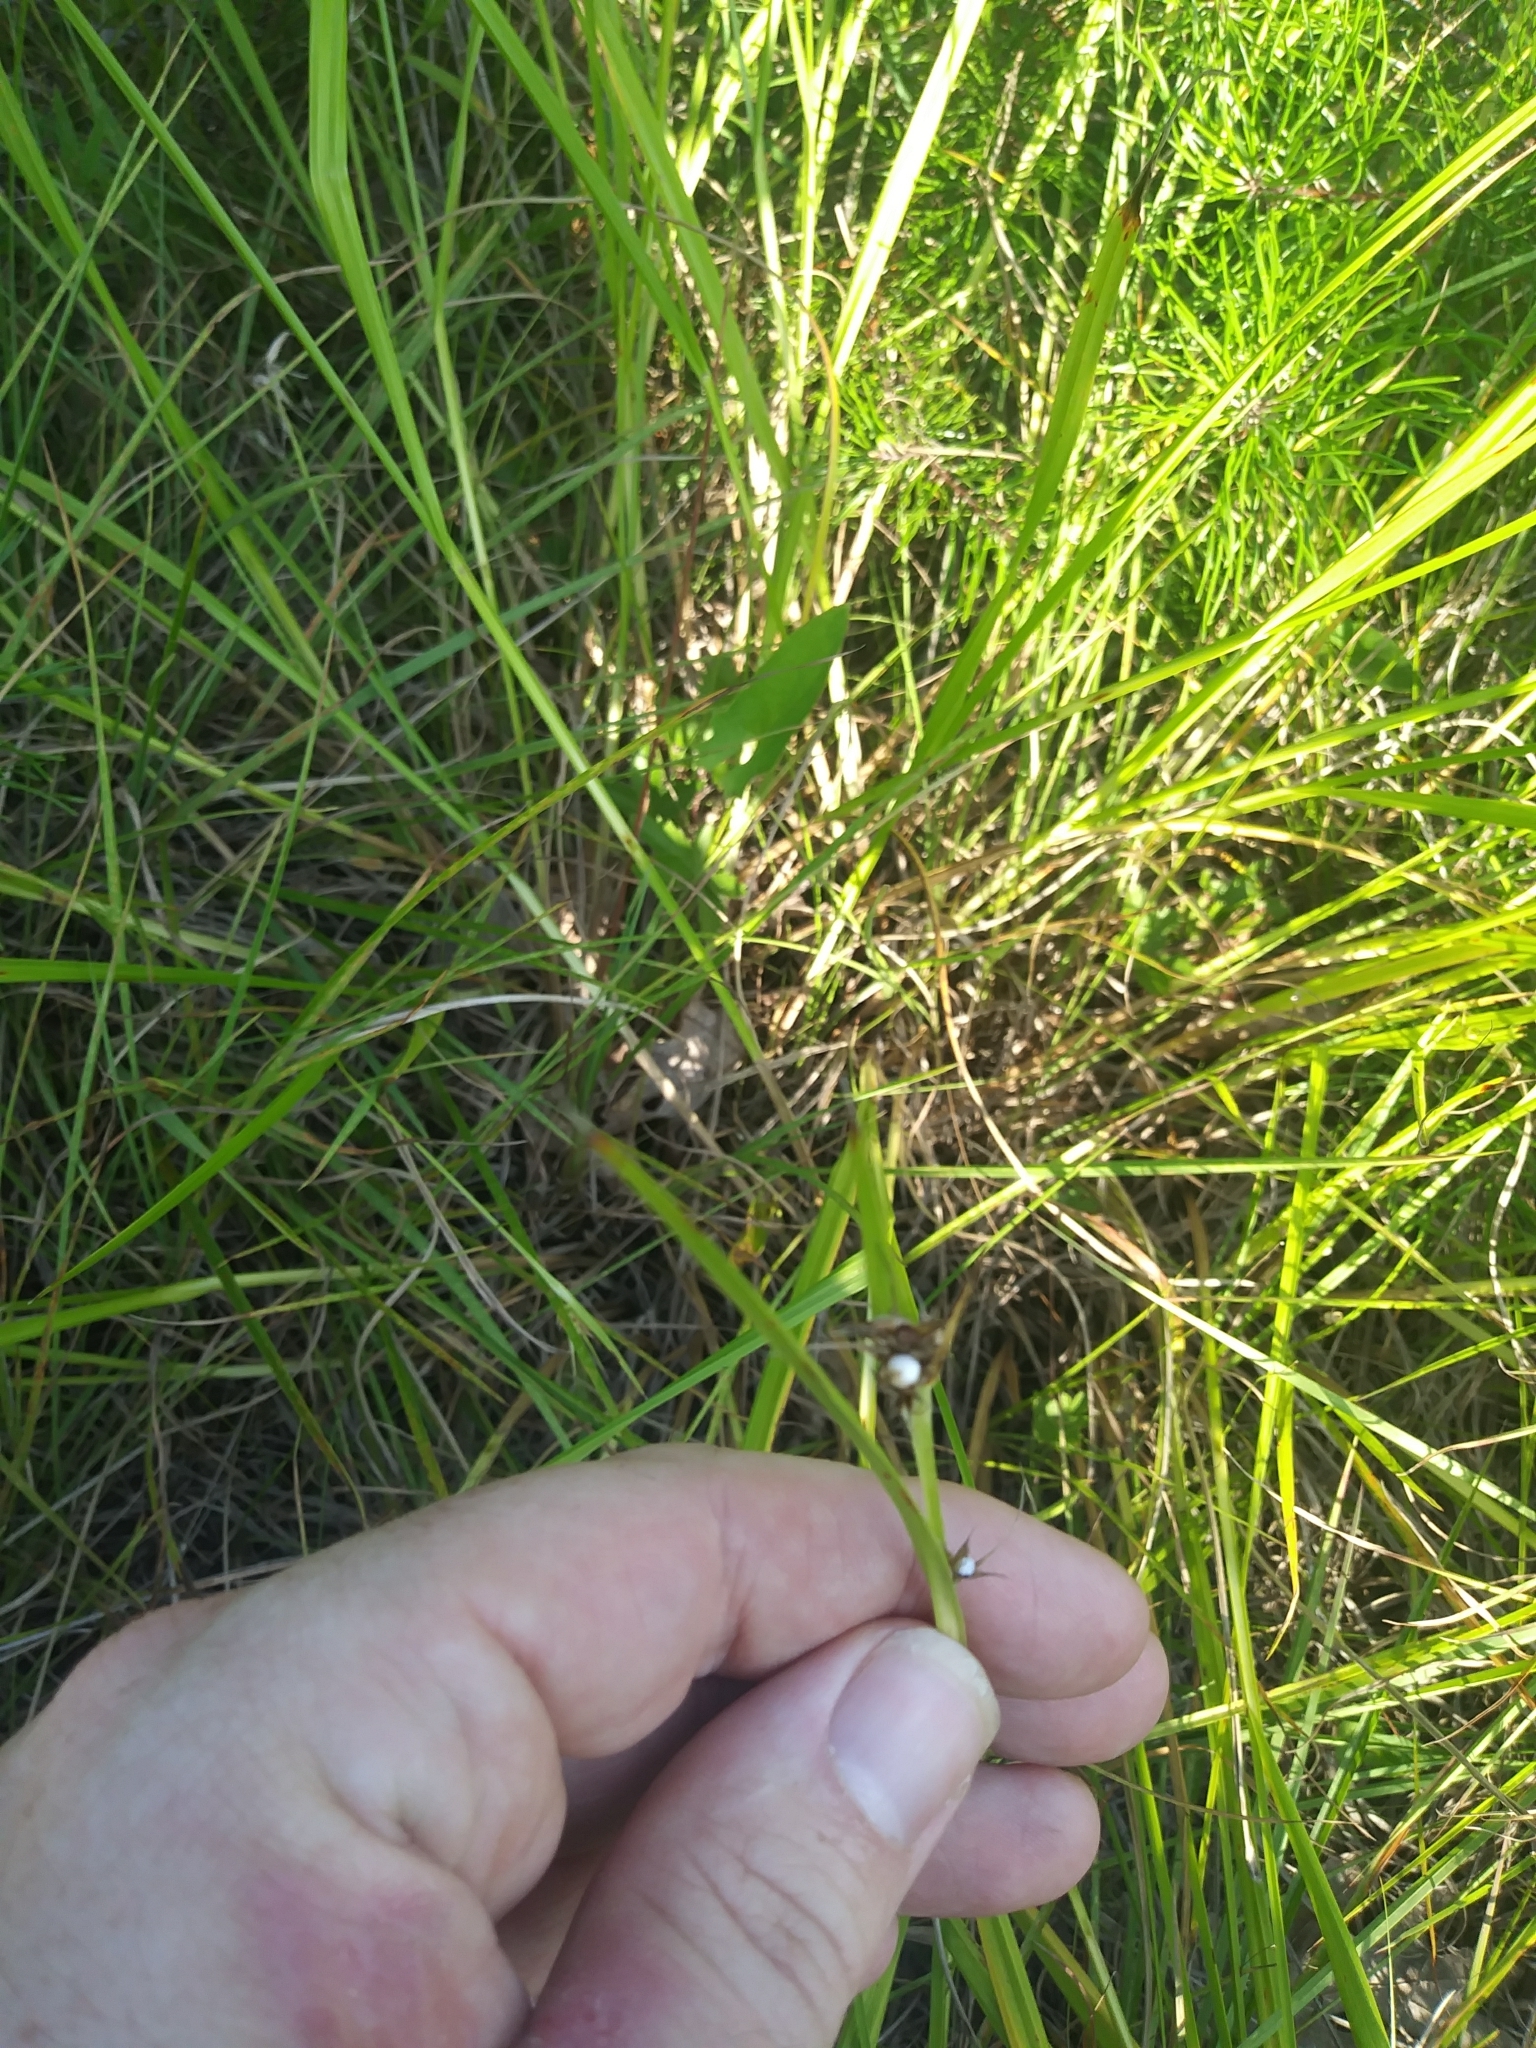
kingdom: Plantae
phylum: Tracheophyta
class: Liliopsida
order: Poales
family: Cyperaceae
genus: Scleria
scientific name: Scleria triglomerata
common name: Whip nutrush
